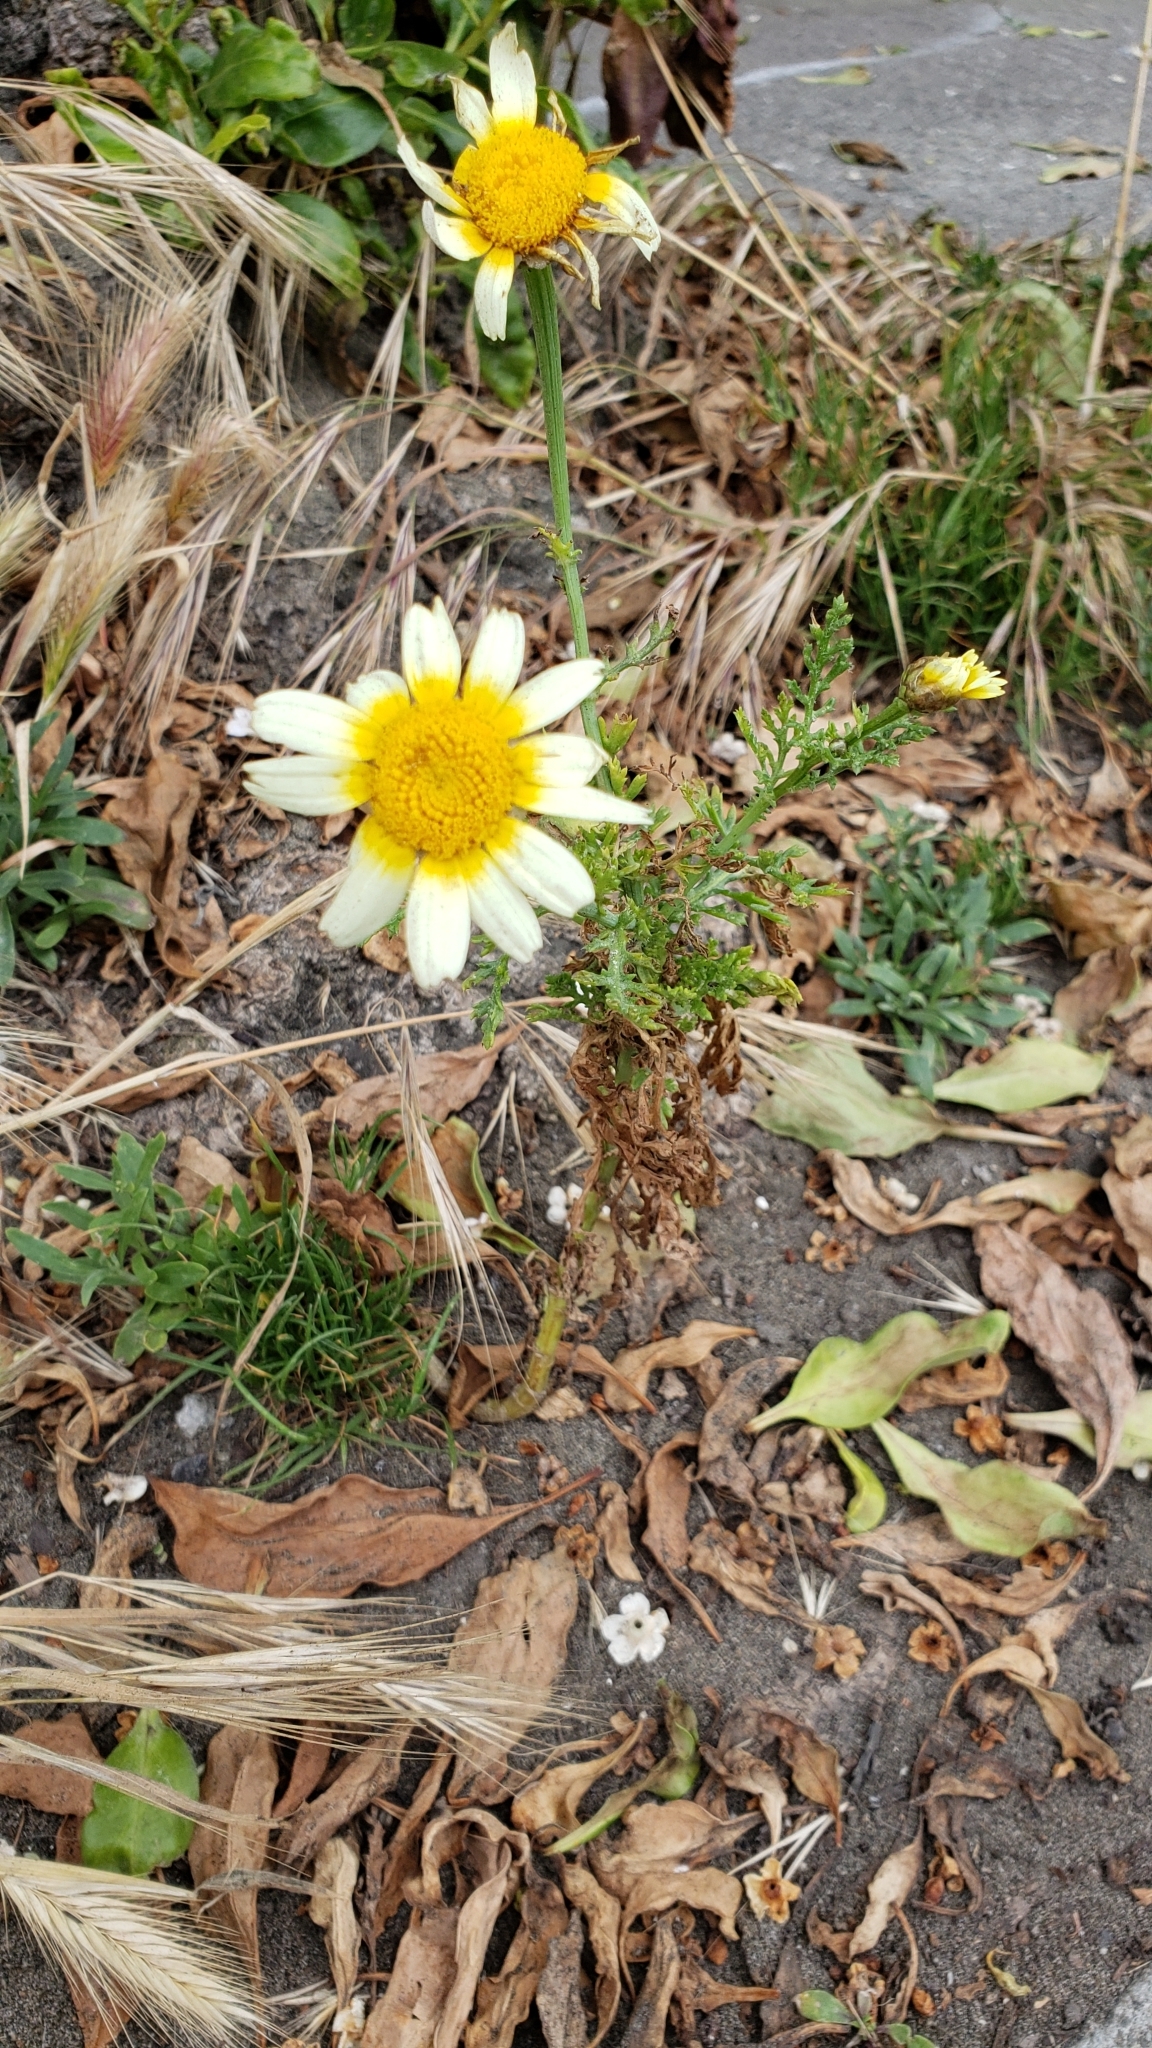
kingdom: Plantae
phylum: Tracheophyta
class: Magnoliopsida
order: Asterales
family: Asteraceae
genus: Glebionis
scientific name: Glebionis coronaria
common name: Crowndaisy
